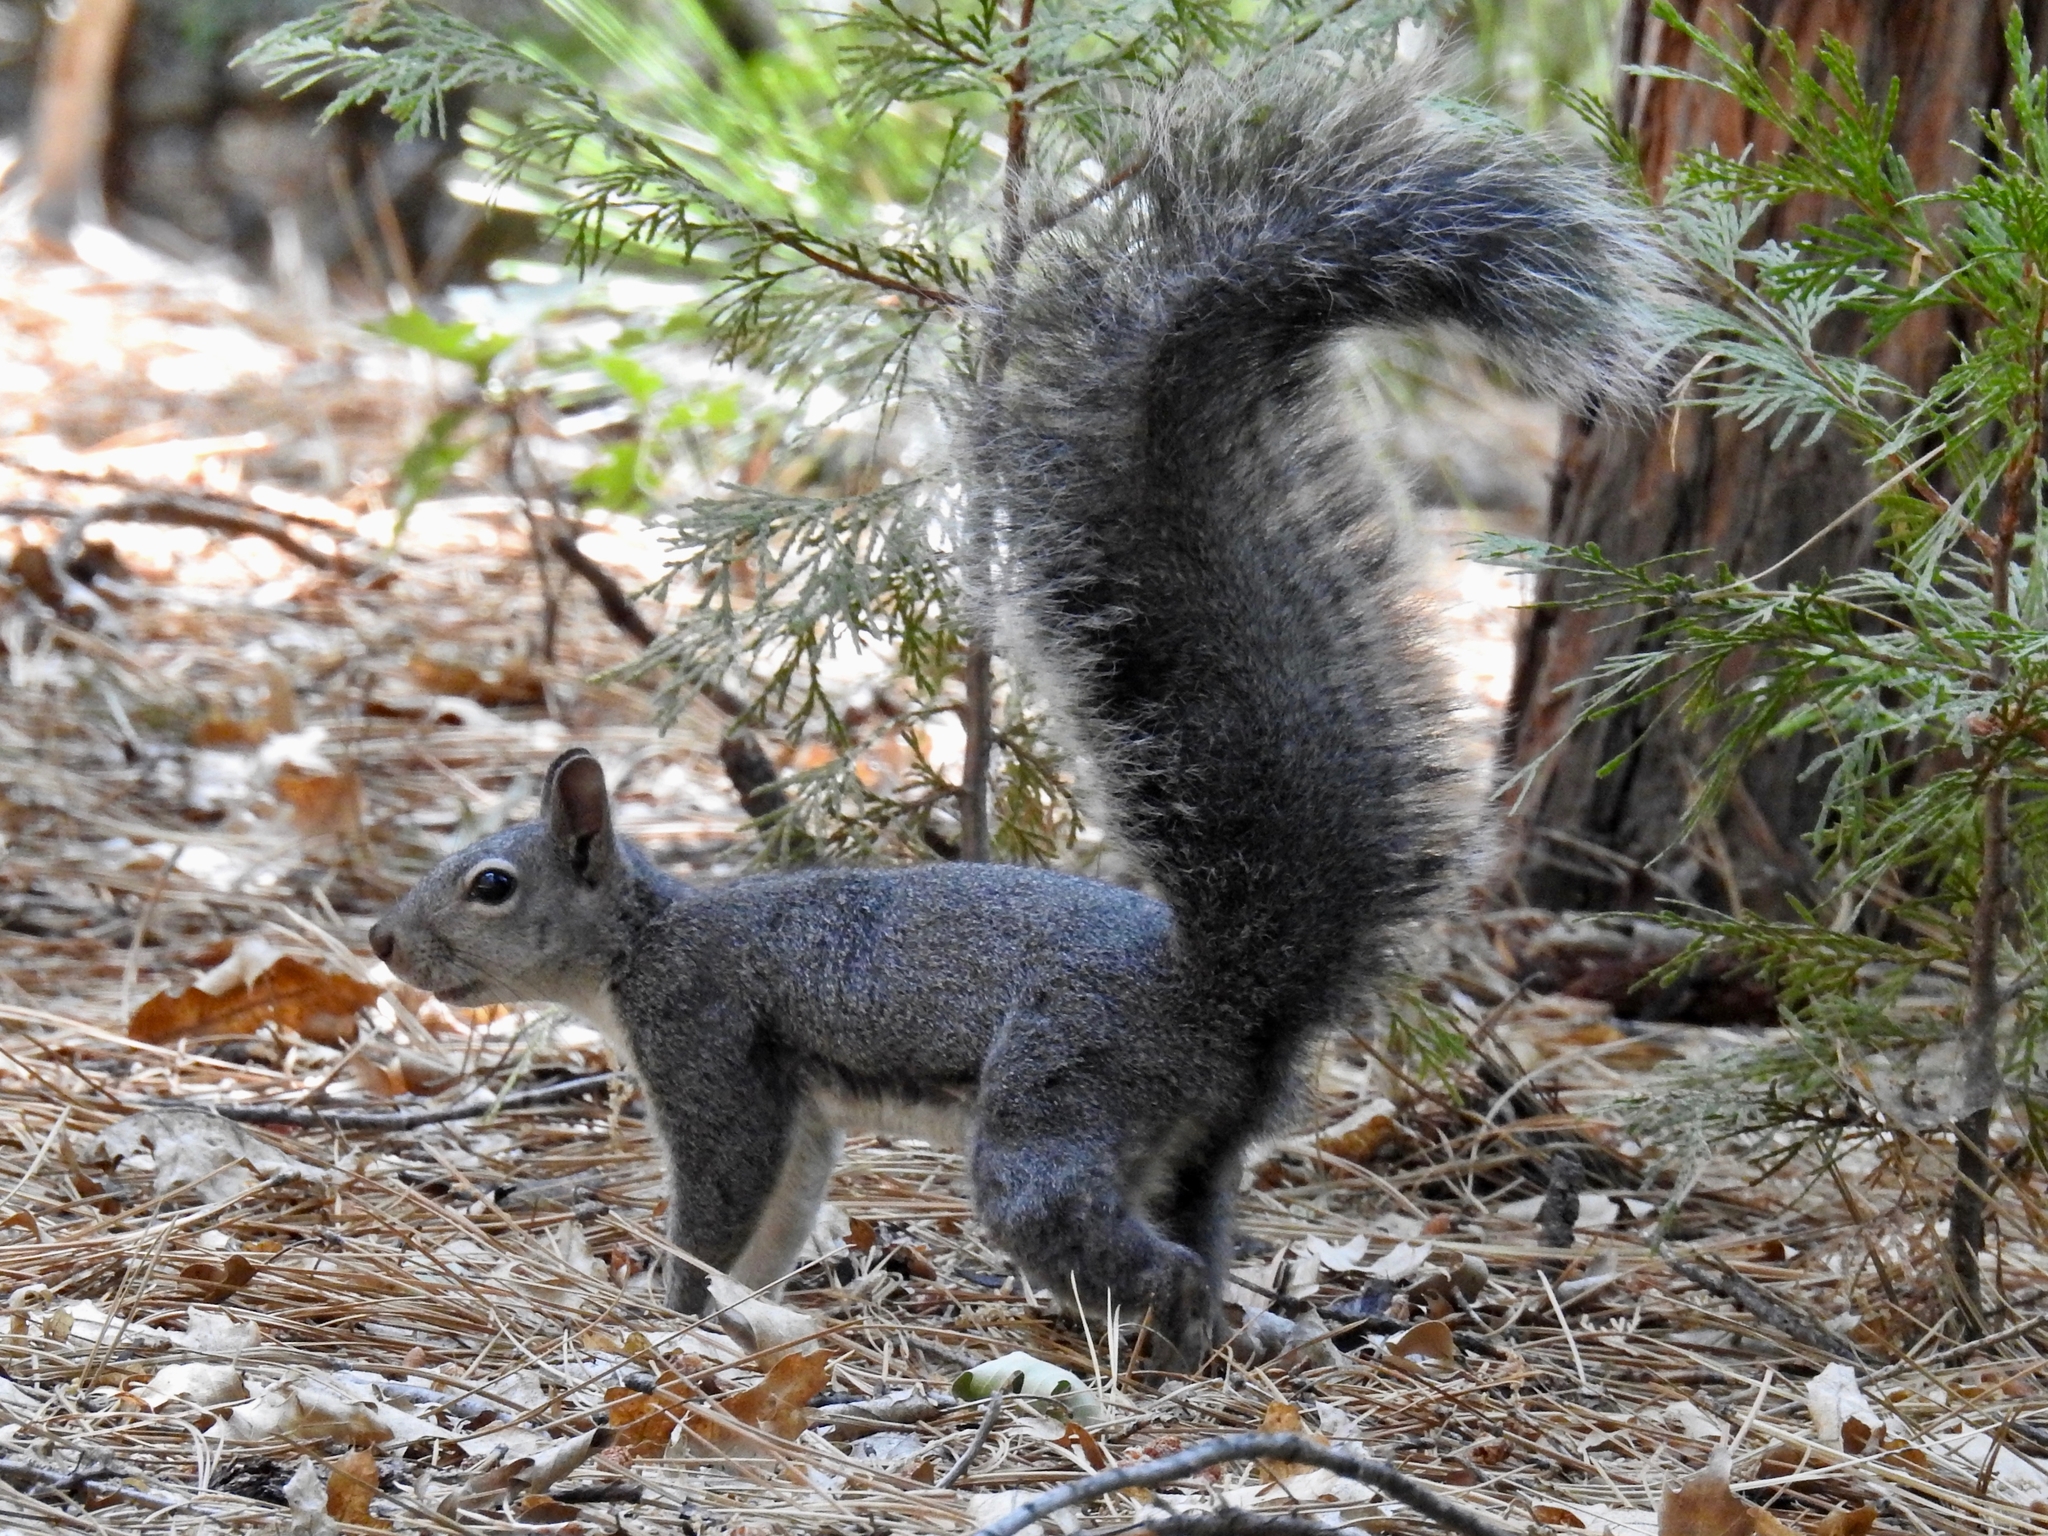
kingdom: Animalia
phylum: Chordata
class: Mammalia
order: Rodentia
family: Sciuridae
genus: Sciurus
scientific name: Sciurus griseus
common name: Western gray squirrel
